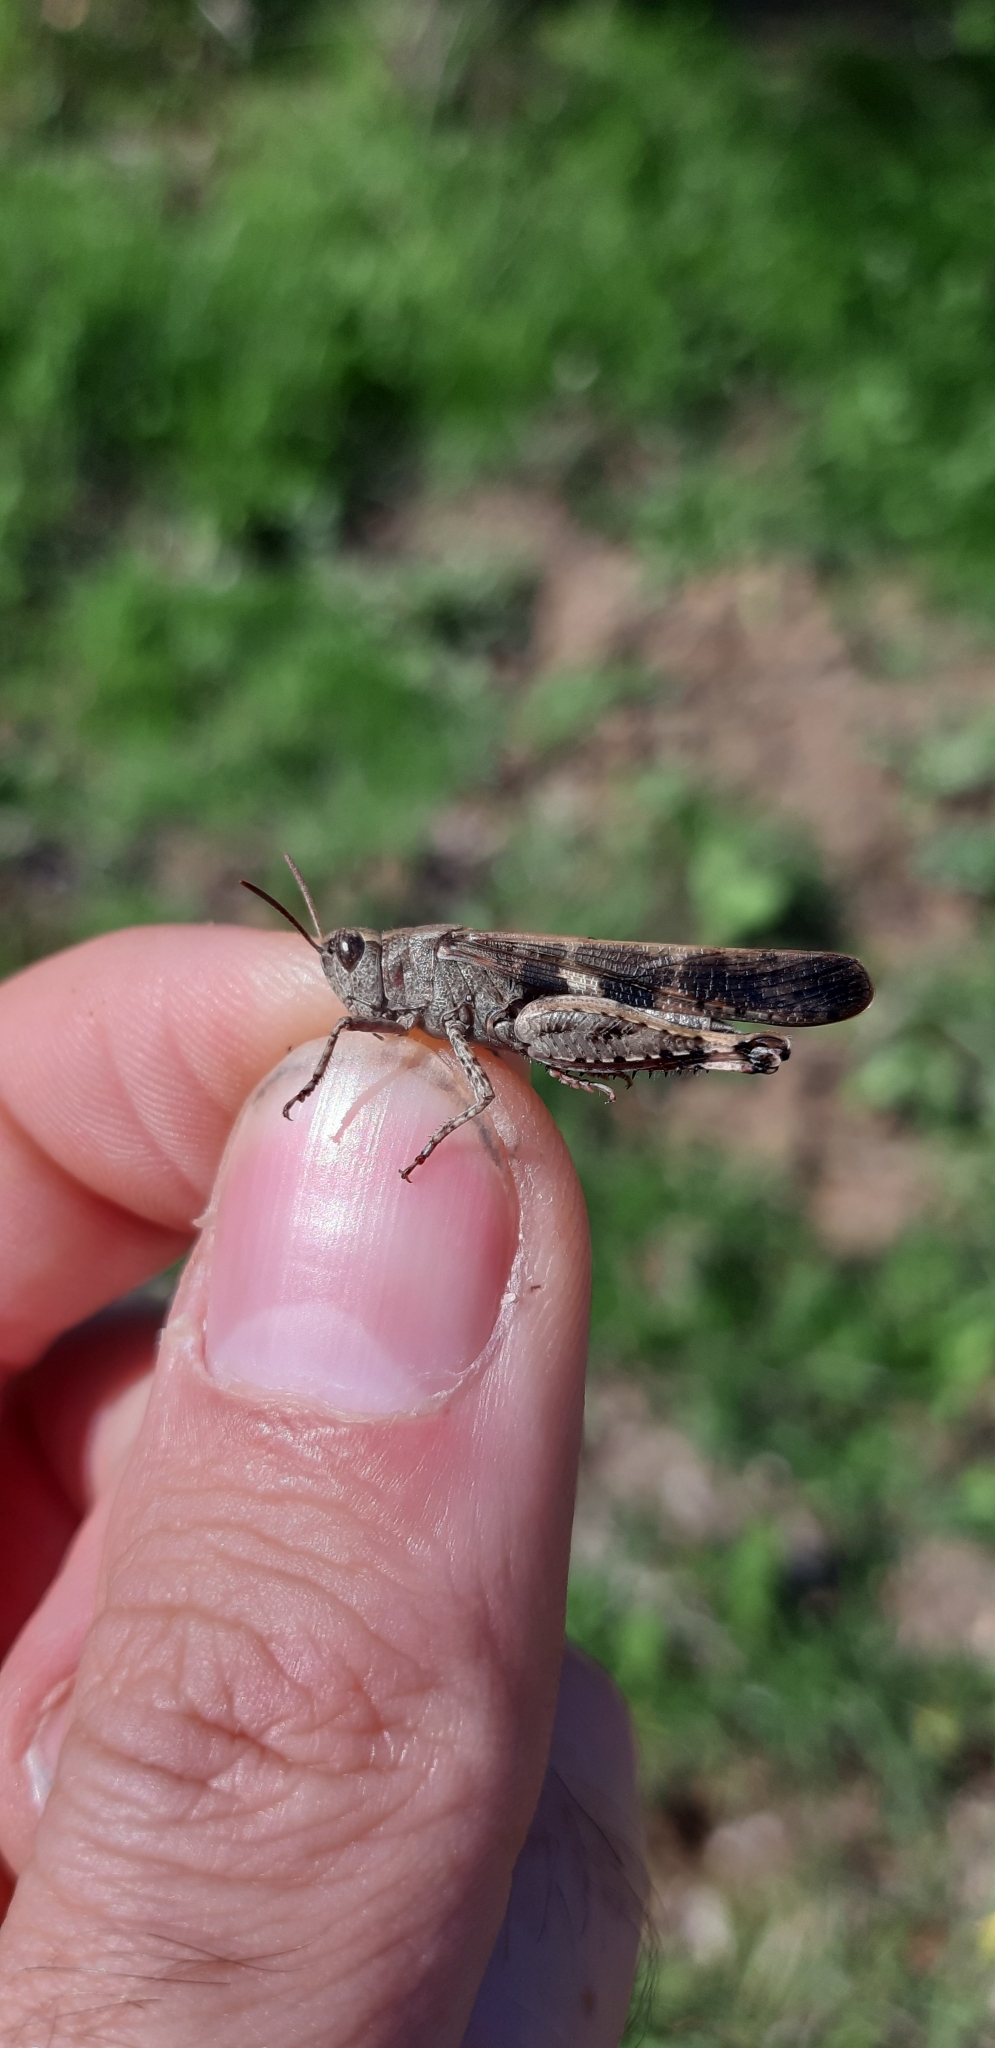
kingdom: Animalia
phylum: Arthropoda
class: Insecta
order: Orthoptera
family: Acrididae
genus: Aiolopus
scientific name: Aiolopus strepens
